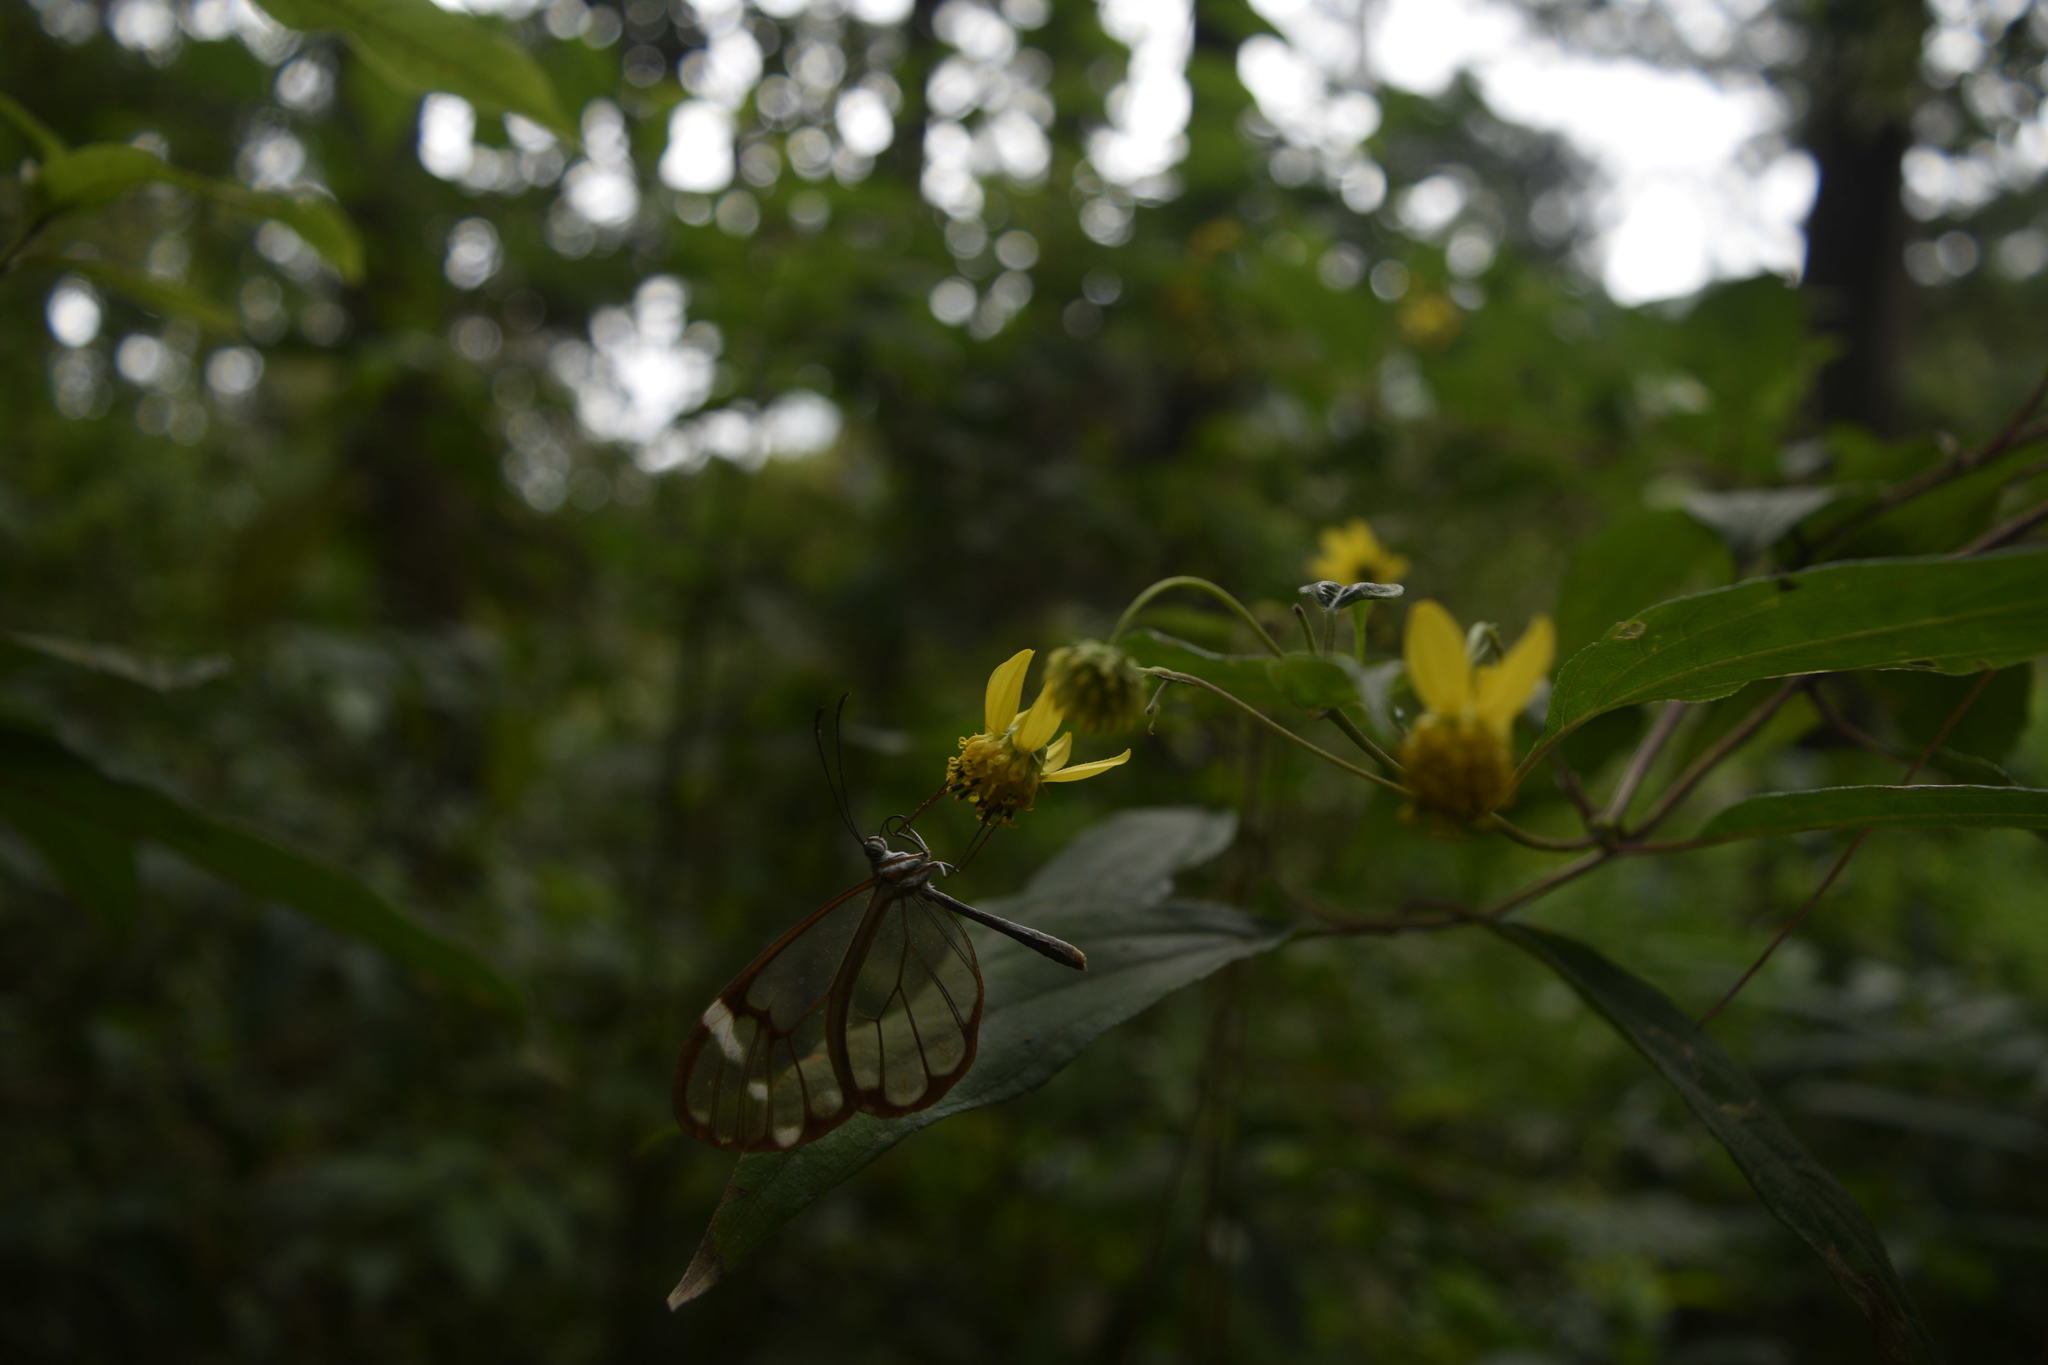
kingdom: Animalia
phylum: Arthropoda
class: Insecta
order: Lepidoptera
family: Nymphalidae
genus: Greta
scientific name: Greta annette
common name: White-spotted clearwing
